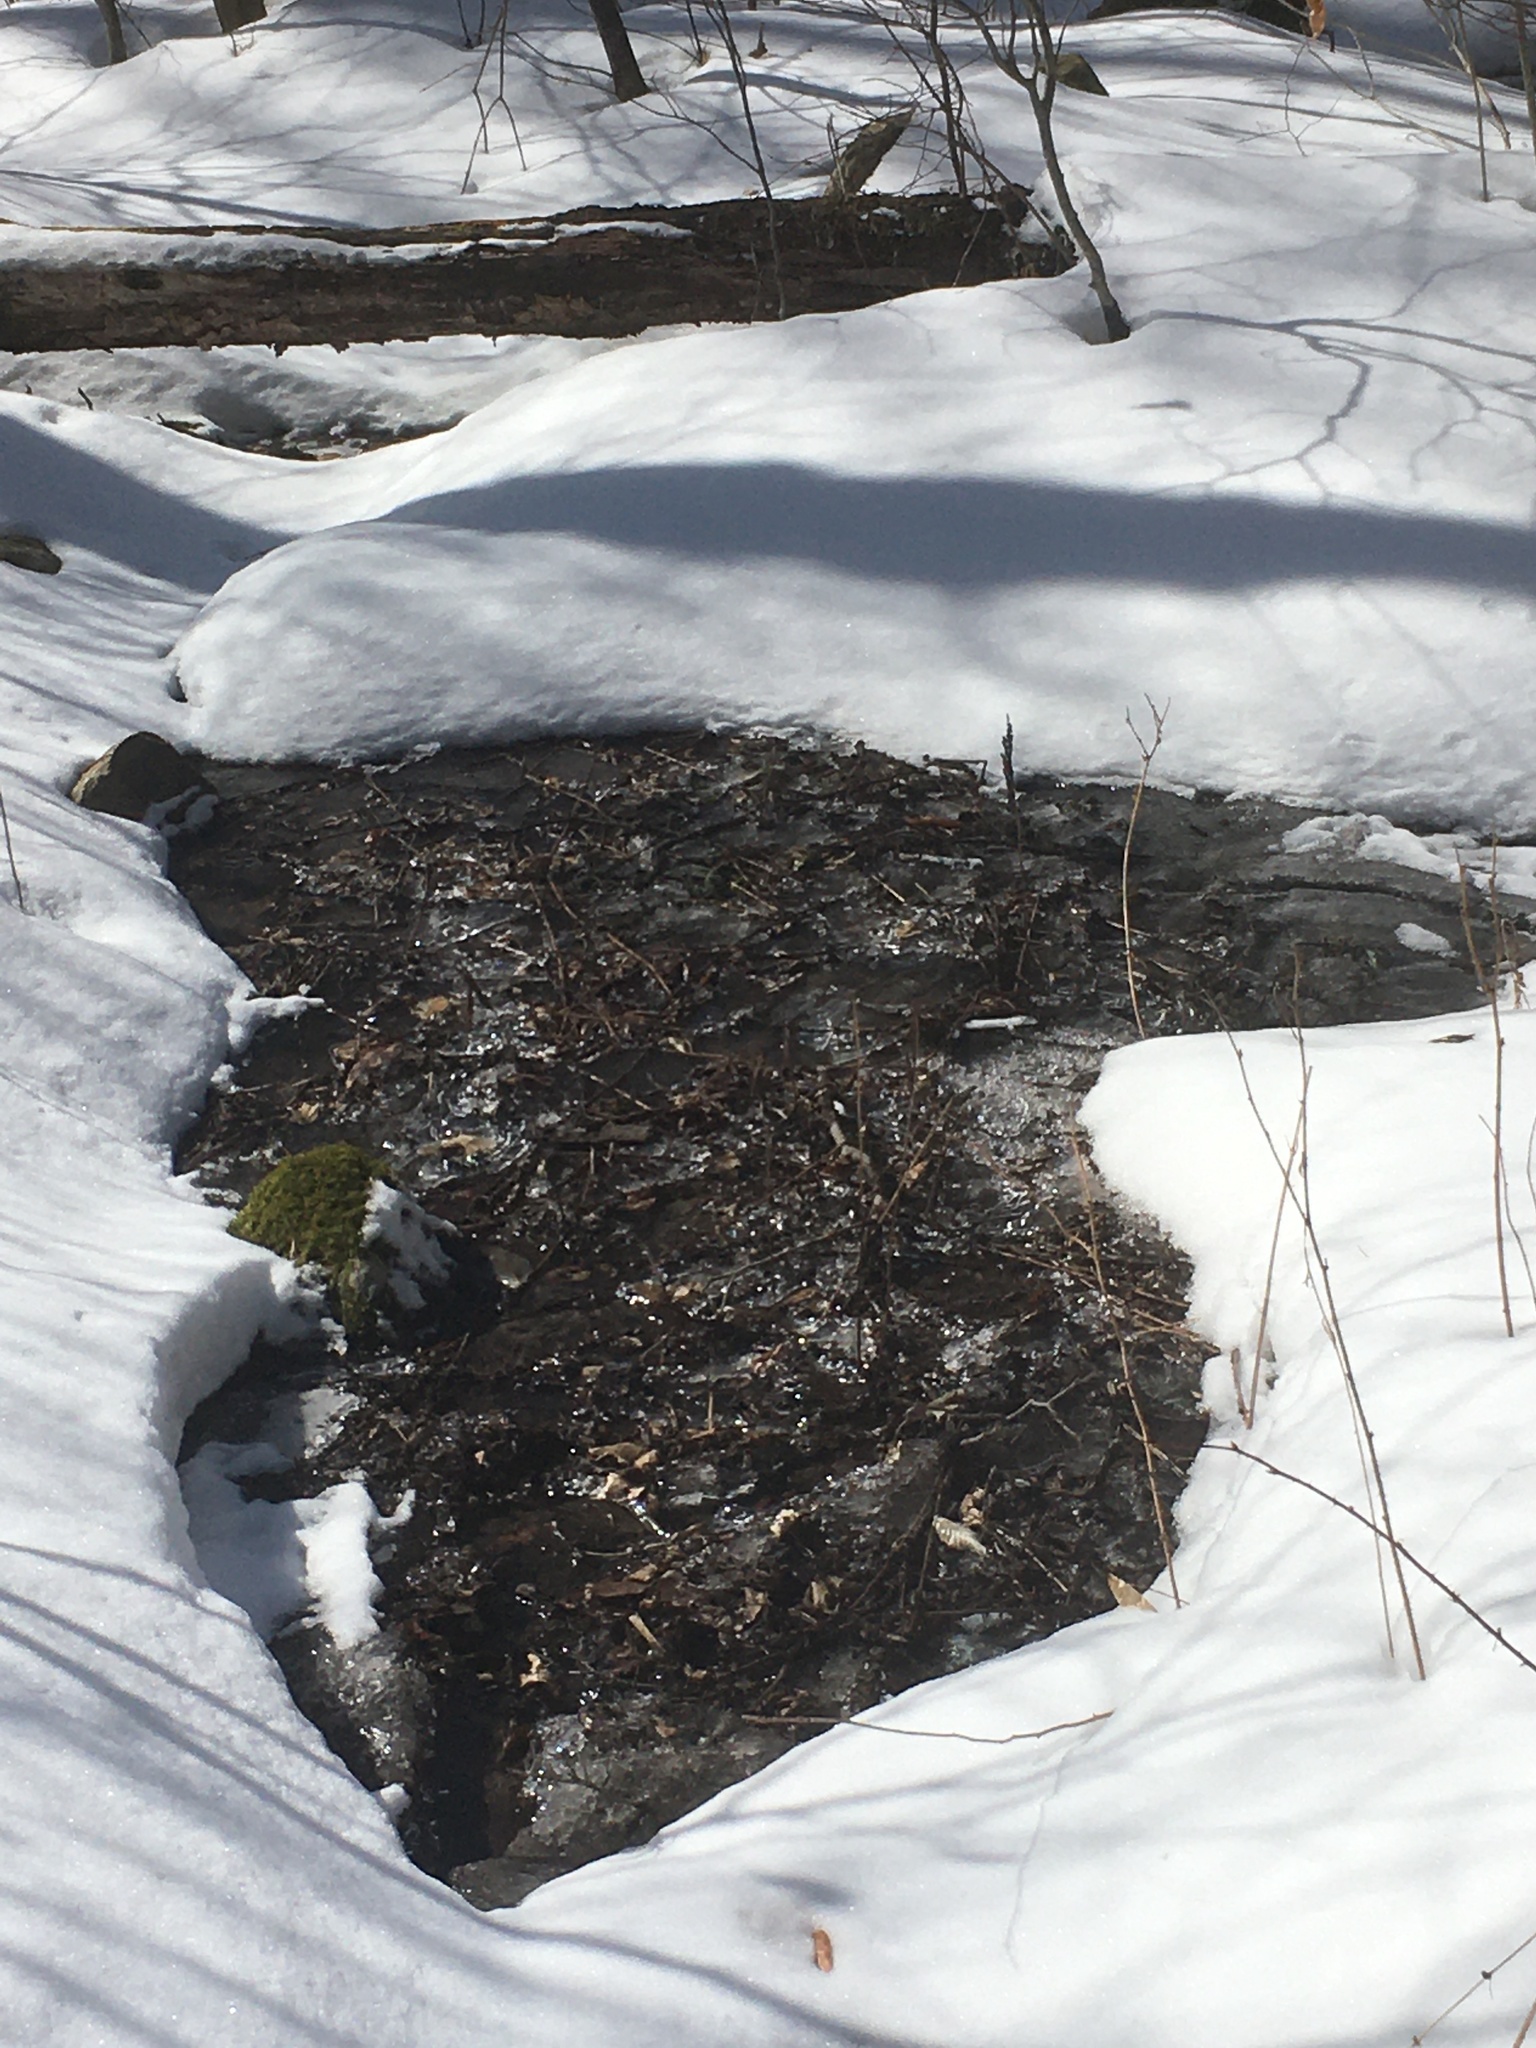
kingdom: Plantae
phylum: Tracheophyta
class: Polypodiopsida
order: Polypodiales
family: Onocleaceae
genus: Onoclea
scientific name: Onoclea sensibilis
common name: Sensitive fern
